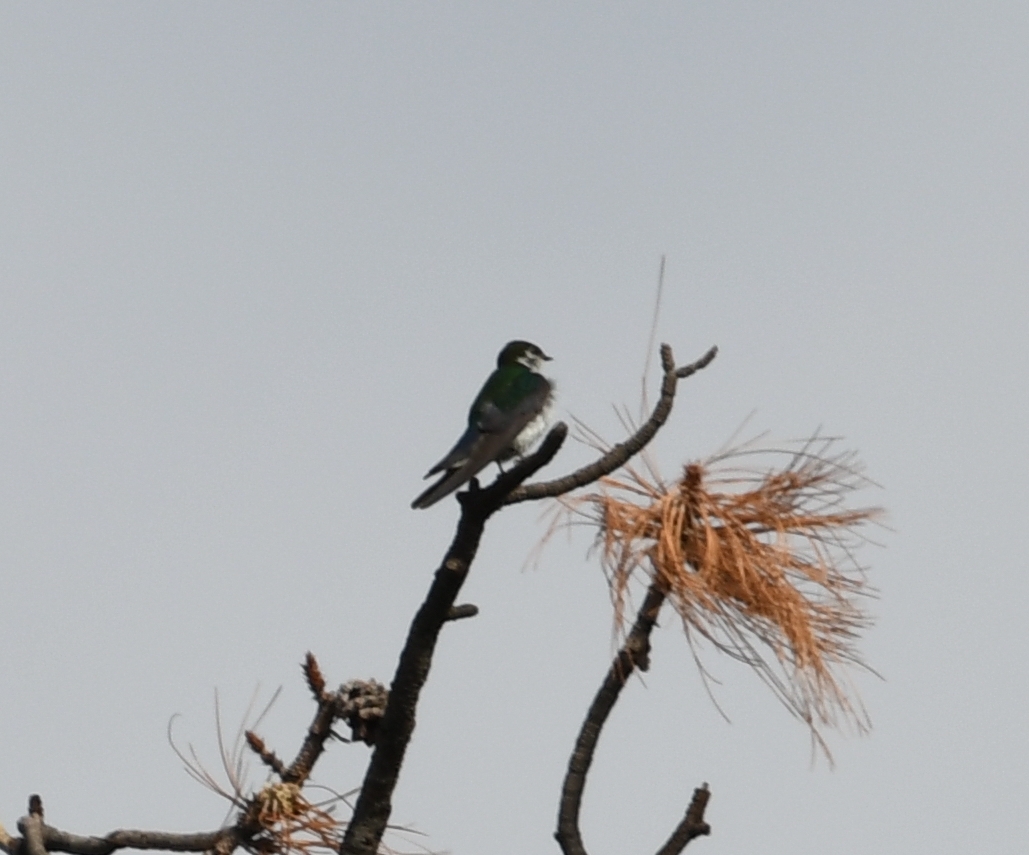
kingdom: Animalia
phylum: Chordata
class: Aves
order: Passeriformes
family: Hirundinidae
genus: Tachycineta
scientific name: Tachycineta thalassina
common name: Violet-green swallow
